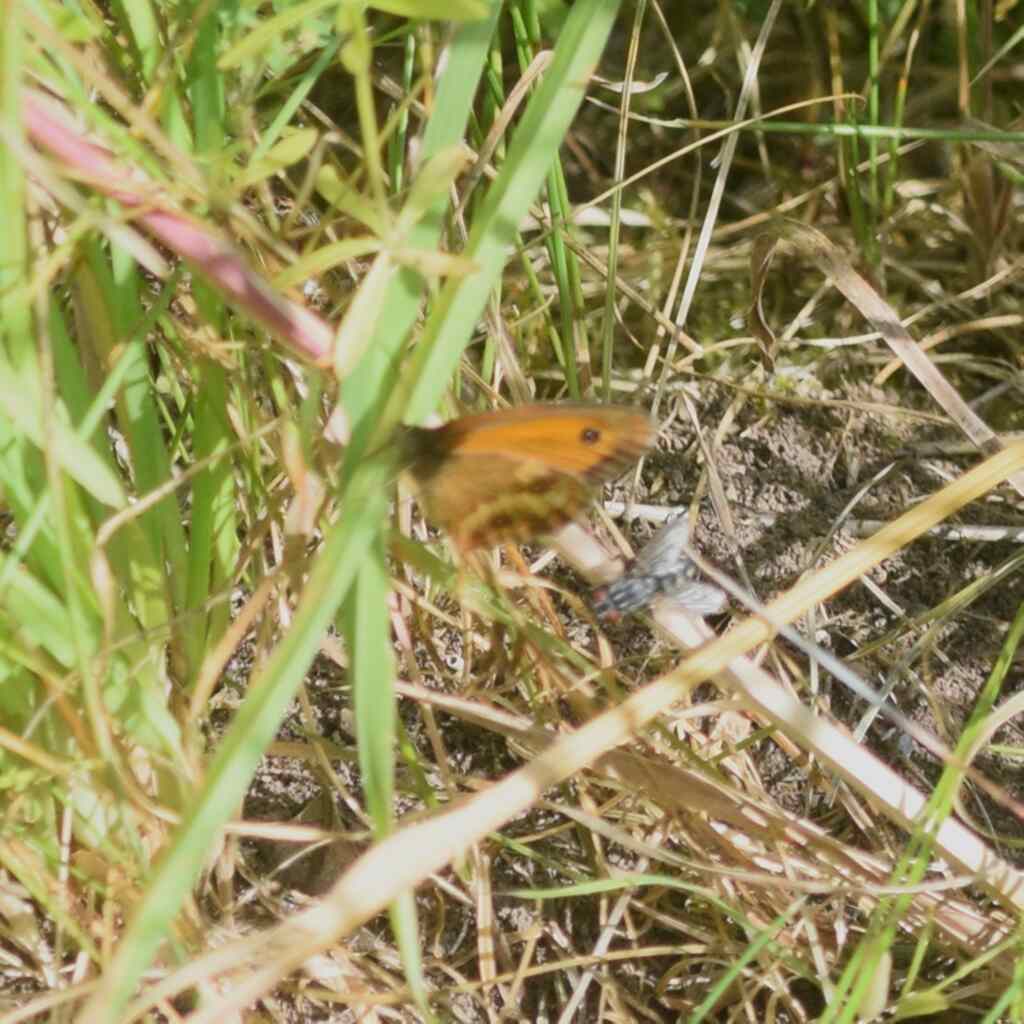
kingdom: Animalia
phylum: Arthropoda
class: Insecta
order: Lepidoptera
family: Nymphalidae
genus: Pyronia
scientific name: Pyronia tithonus
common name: Gatekeeper
